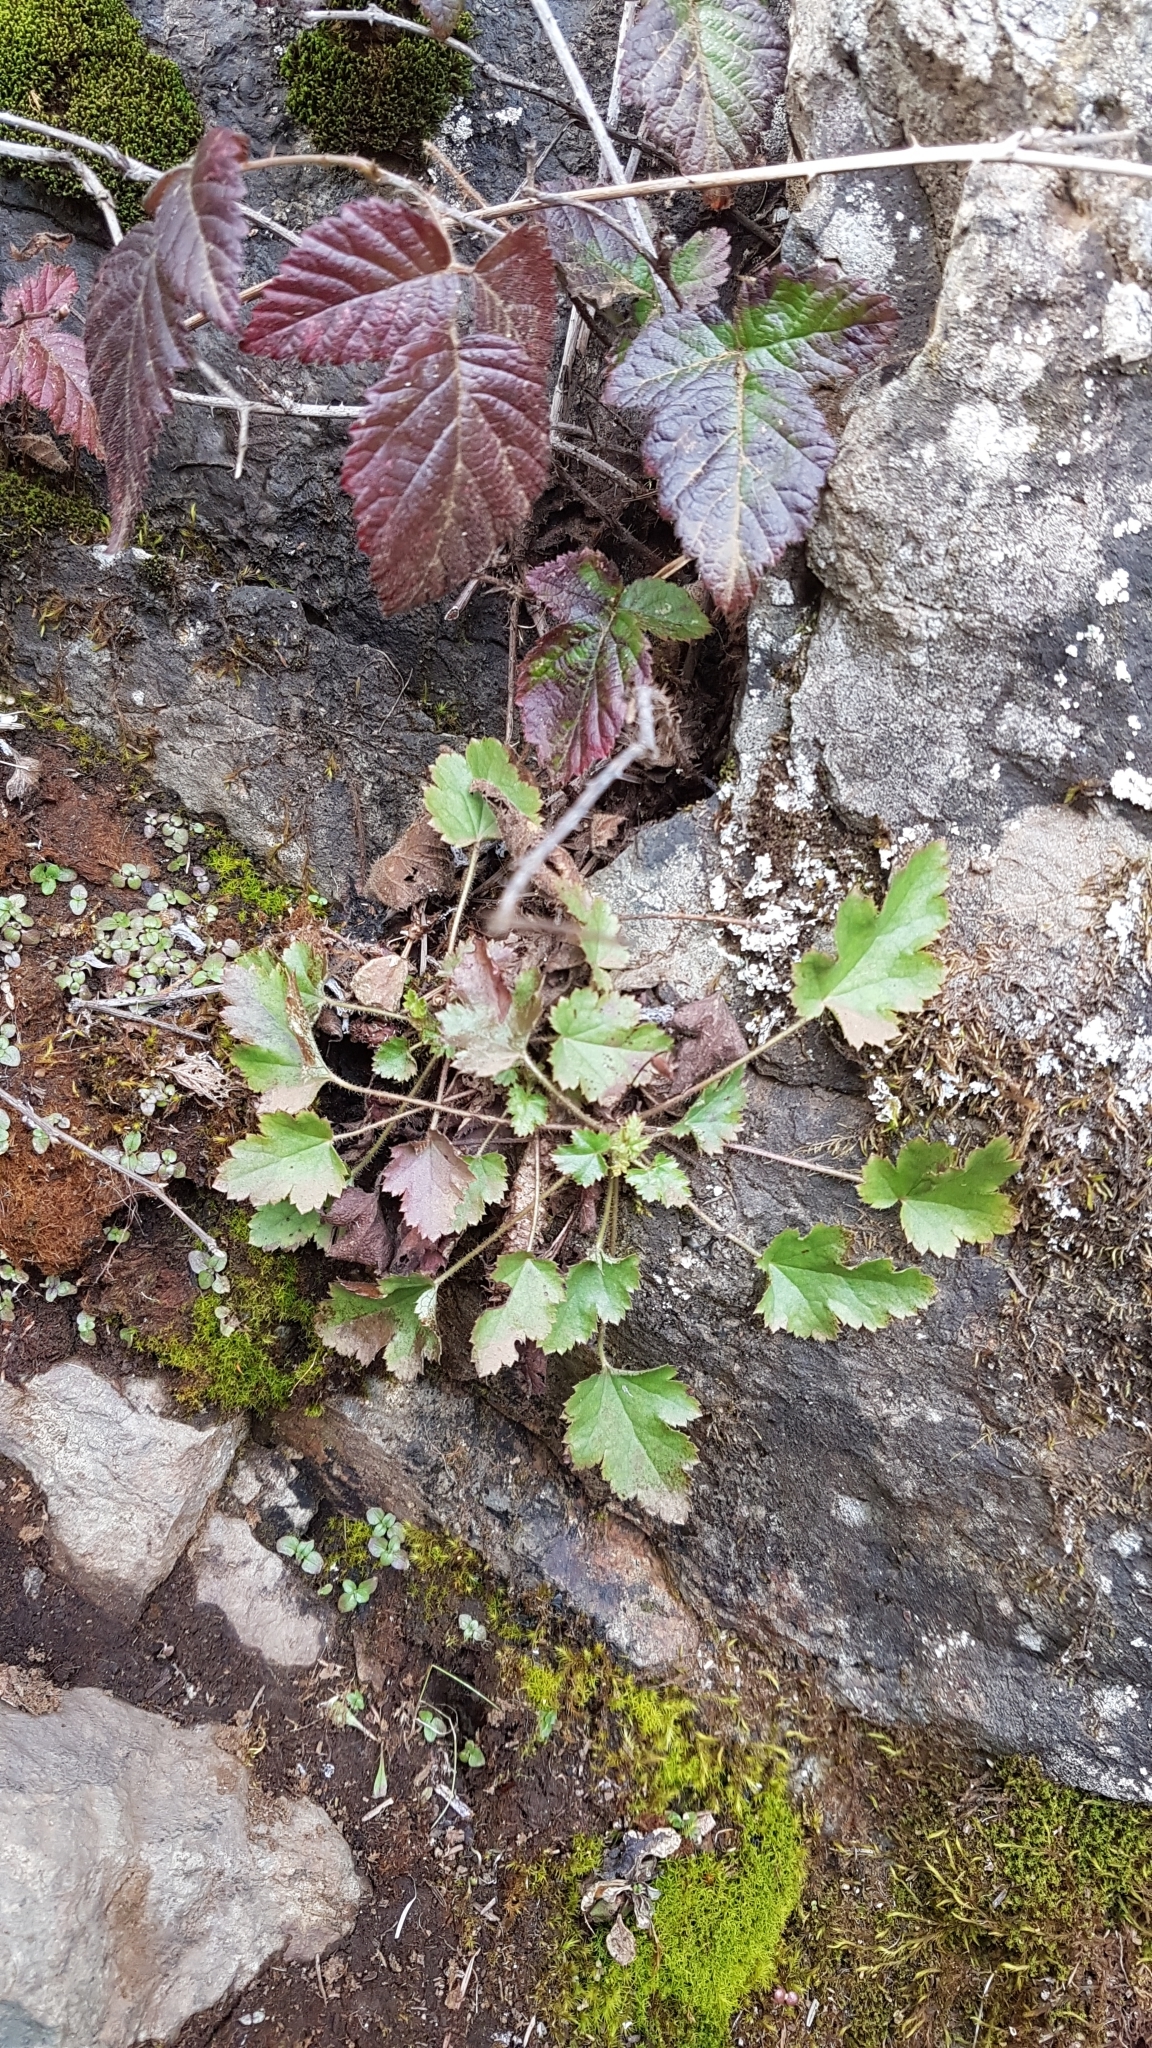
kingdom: Plantae
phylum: Tracheophyta
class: Magnoliopsida
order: Saxifragales
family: Saxifragaceae
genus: Heuchera
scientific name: Heuchera micrantha
